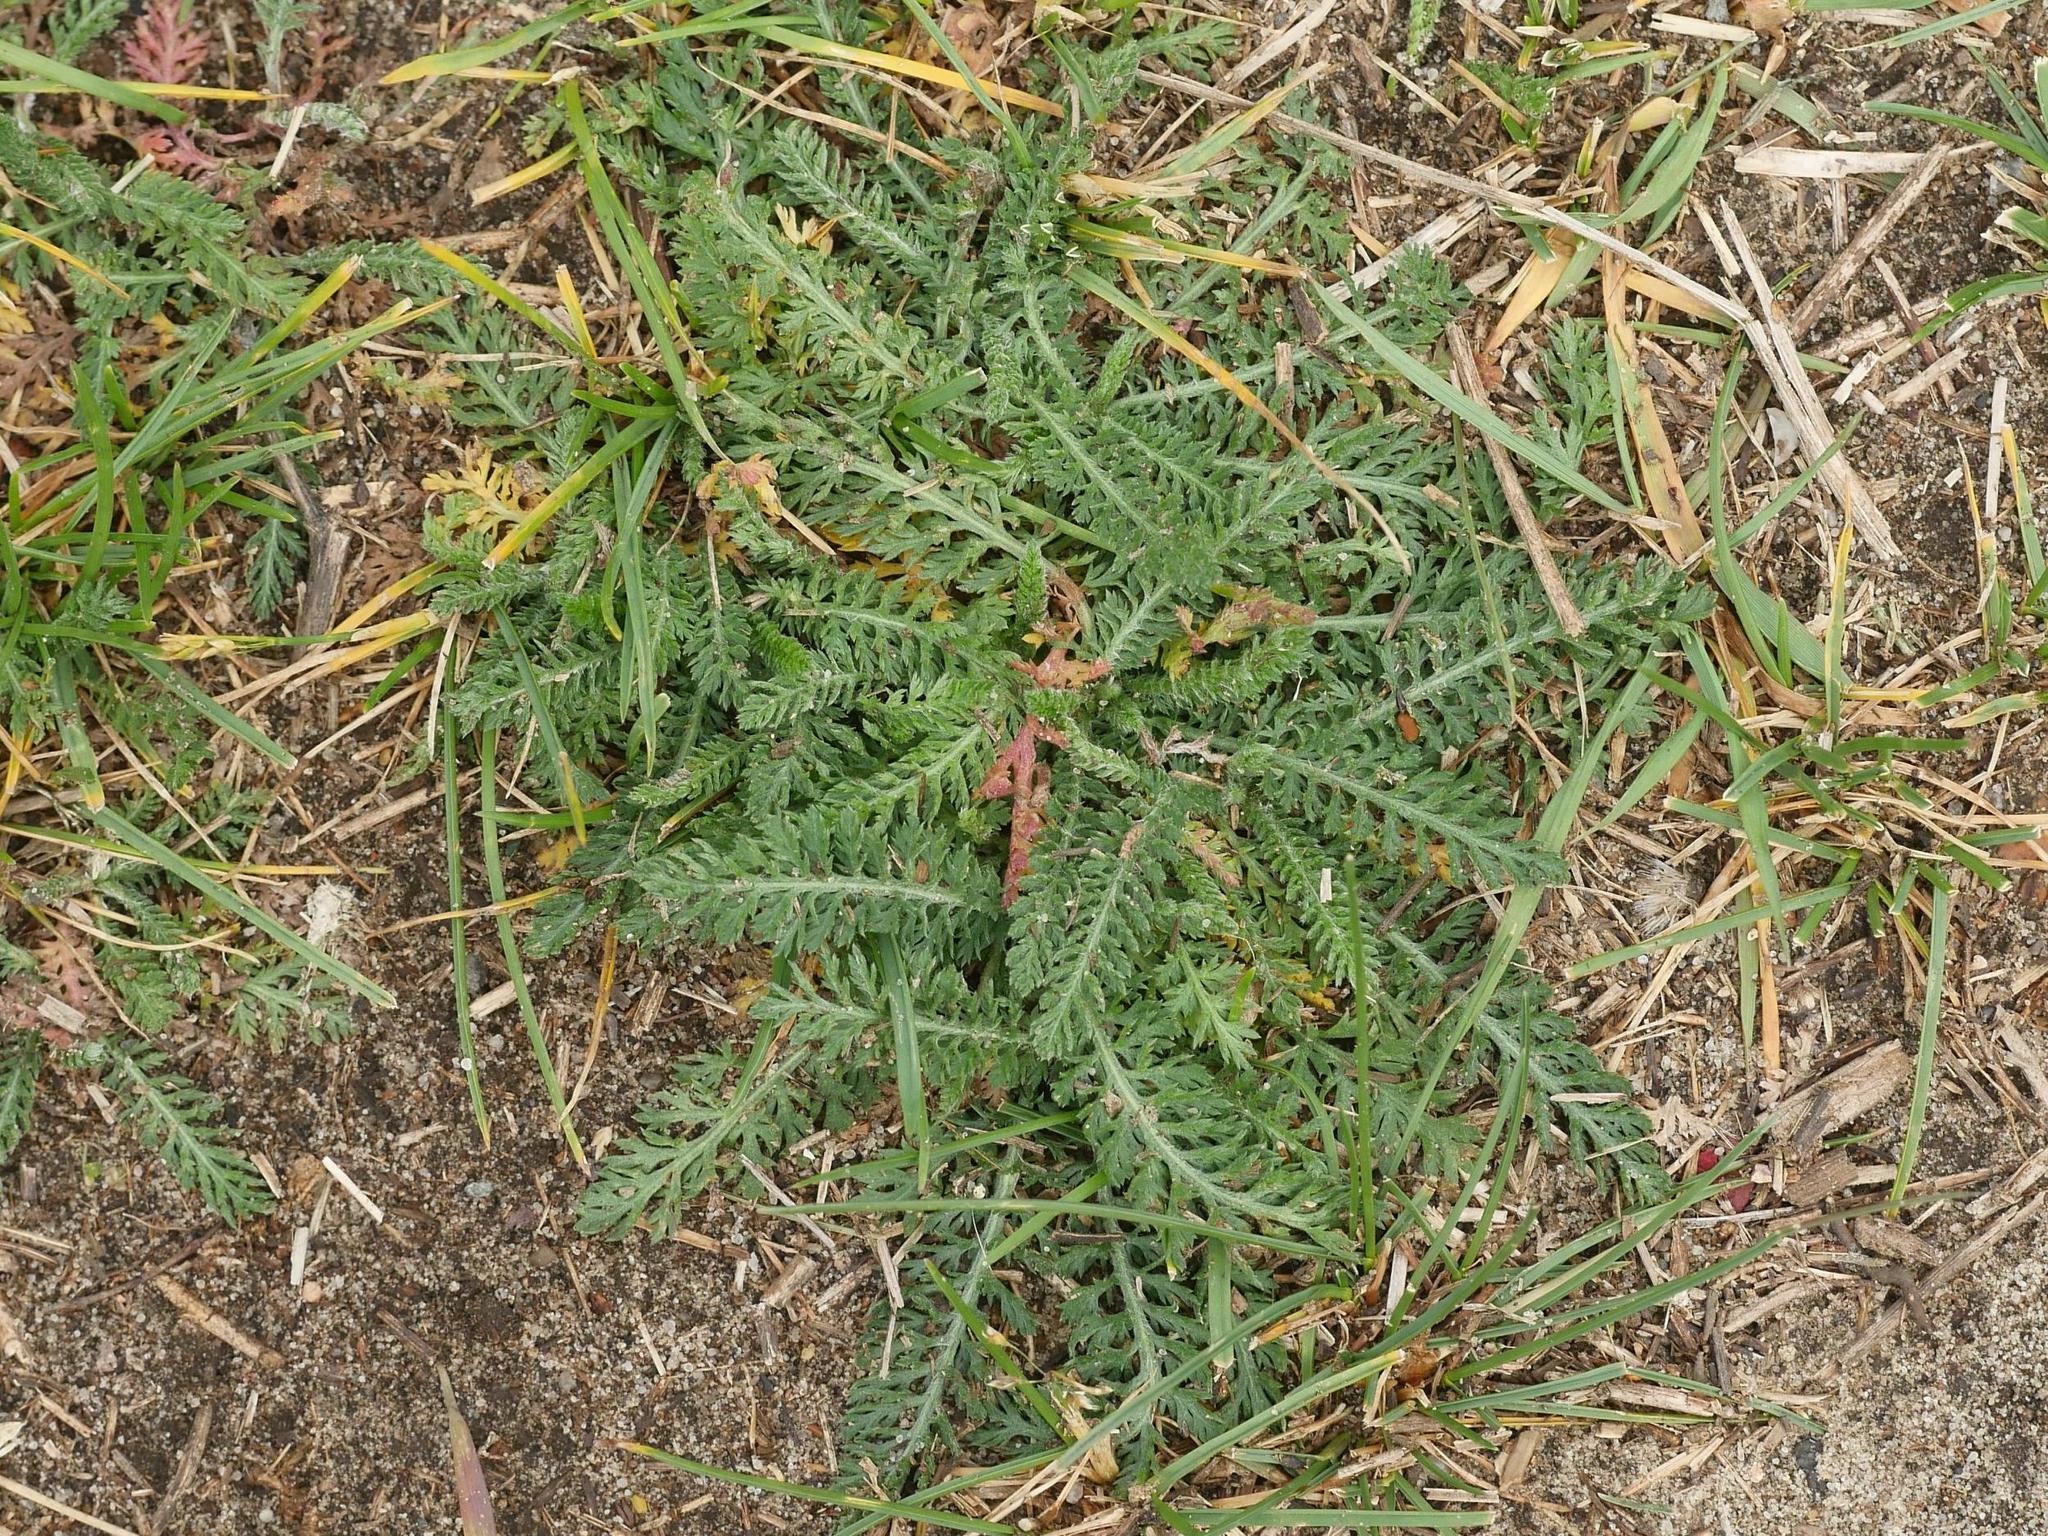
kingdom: Plantae
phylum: Tracheophyta
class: Magnoliopsida
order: Asterales
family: Asteraceae
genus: Achillea
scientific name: Achillea millefolium
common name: Yarrow
